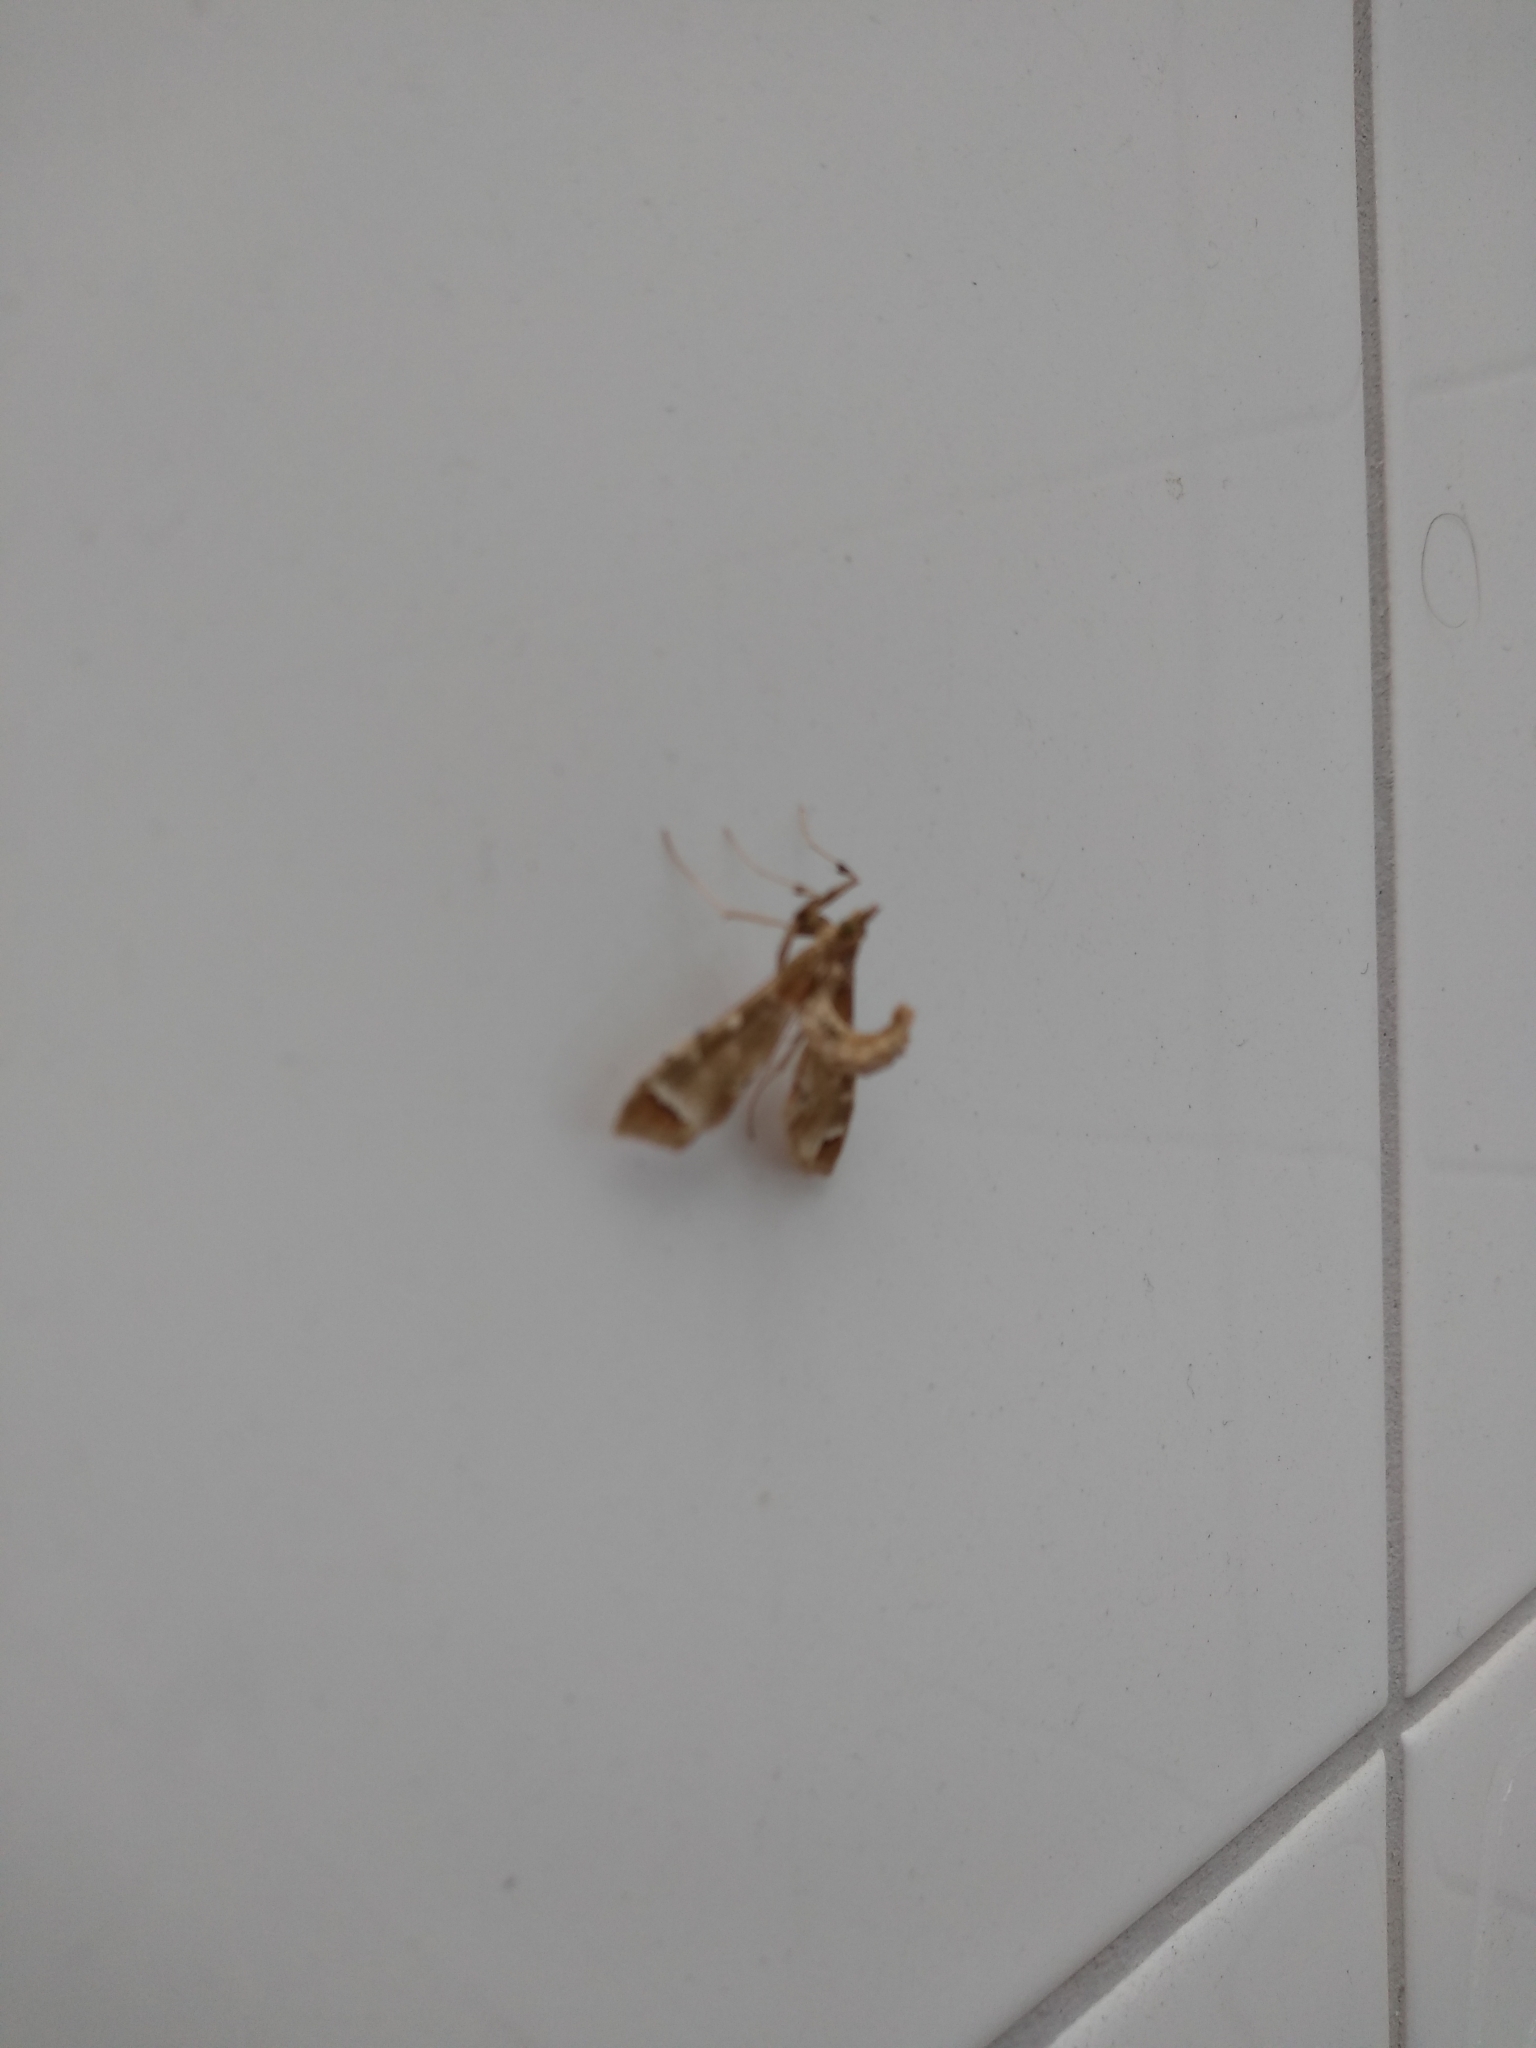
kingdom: Animalia
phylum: Arthropoda
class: Insecta
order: Lepidoptera
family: Crambidae
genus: Sceliodes
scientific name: Sceliodes cordalis
